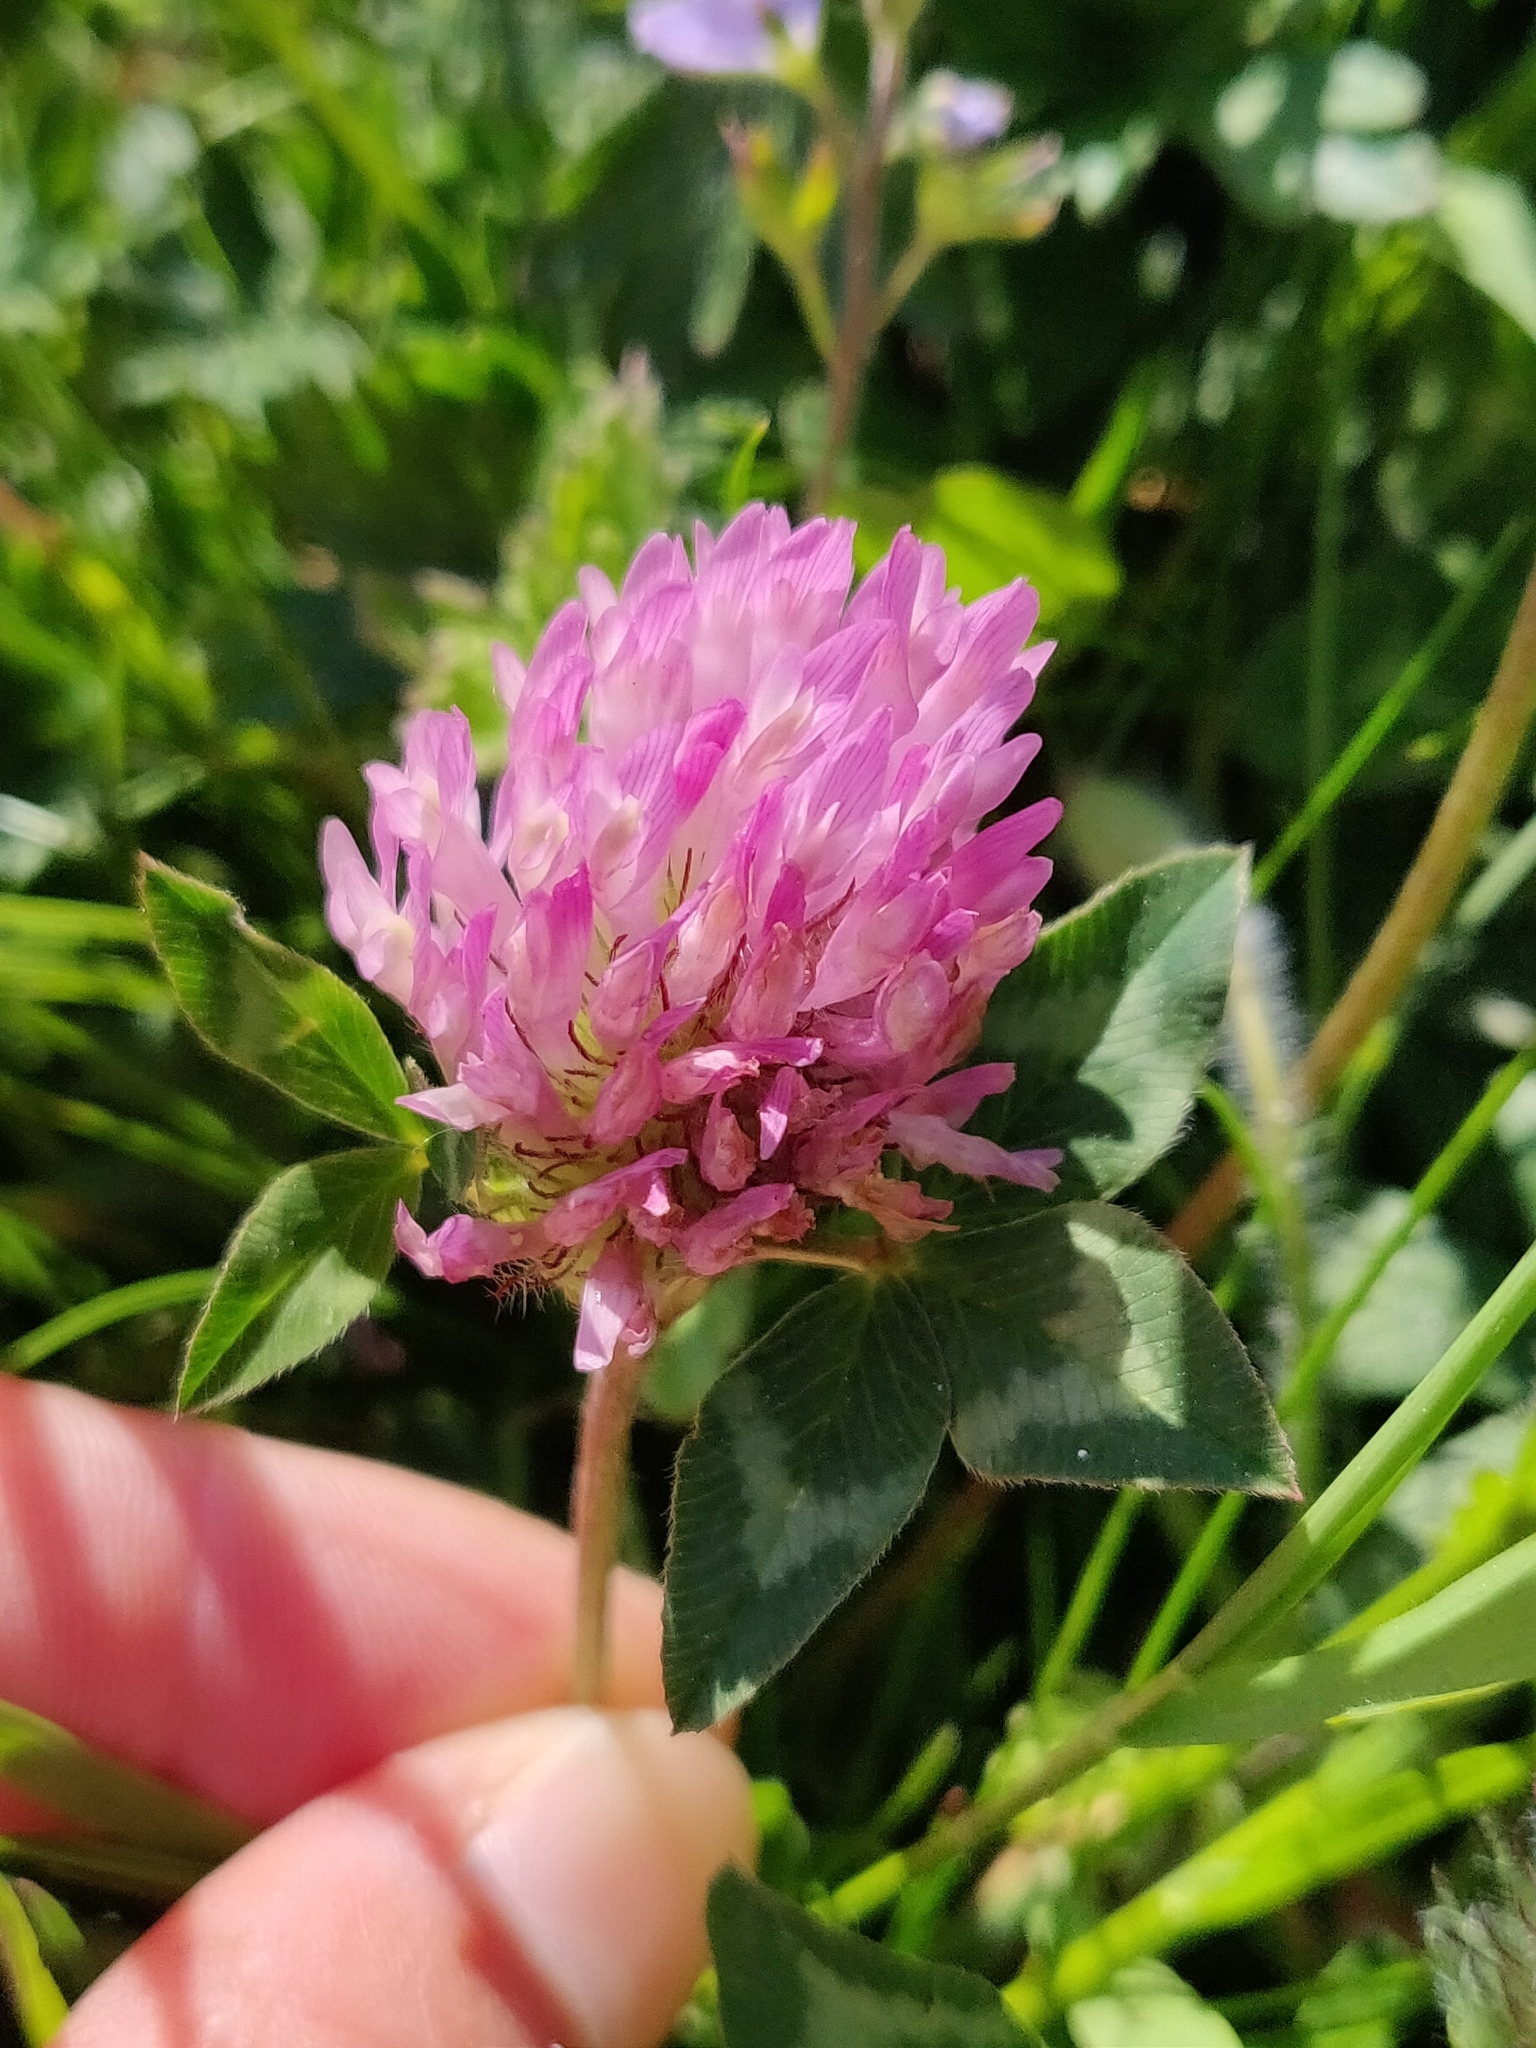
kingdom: Plantae
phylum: Tracheophyta
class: Magnoliopsida
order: Fabales
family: Fabaceae
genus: Trifolium
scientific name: Trifolium pratense
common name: Red clover
